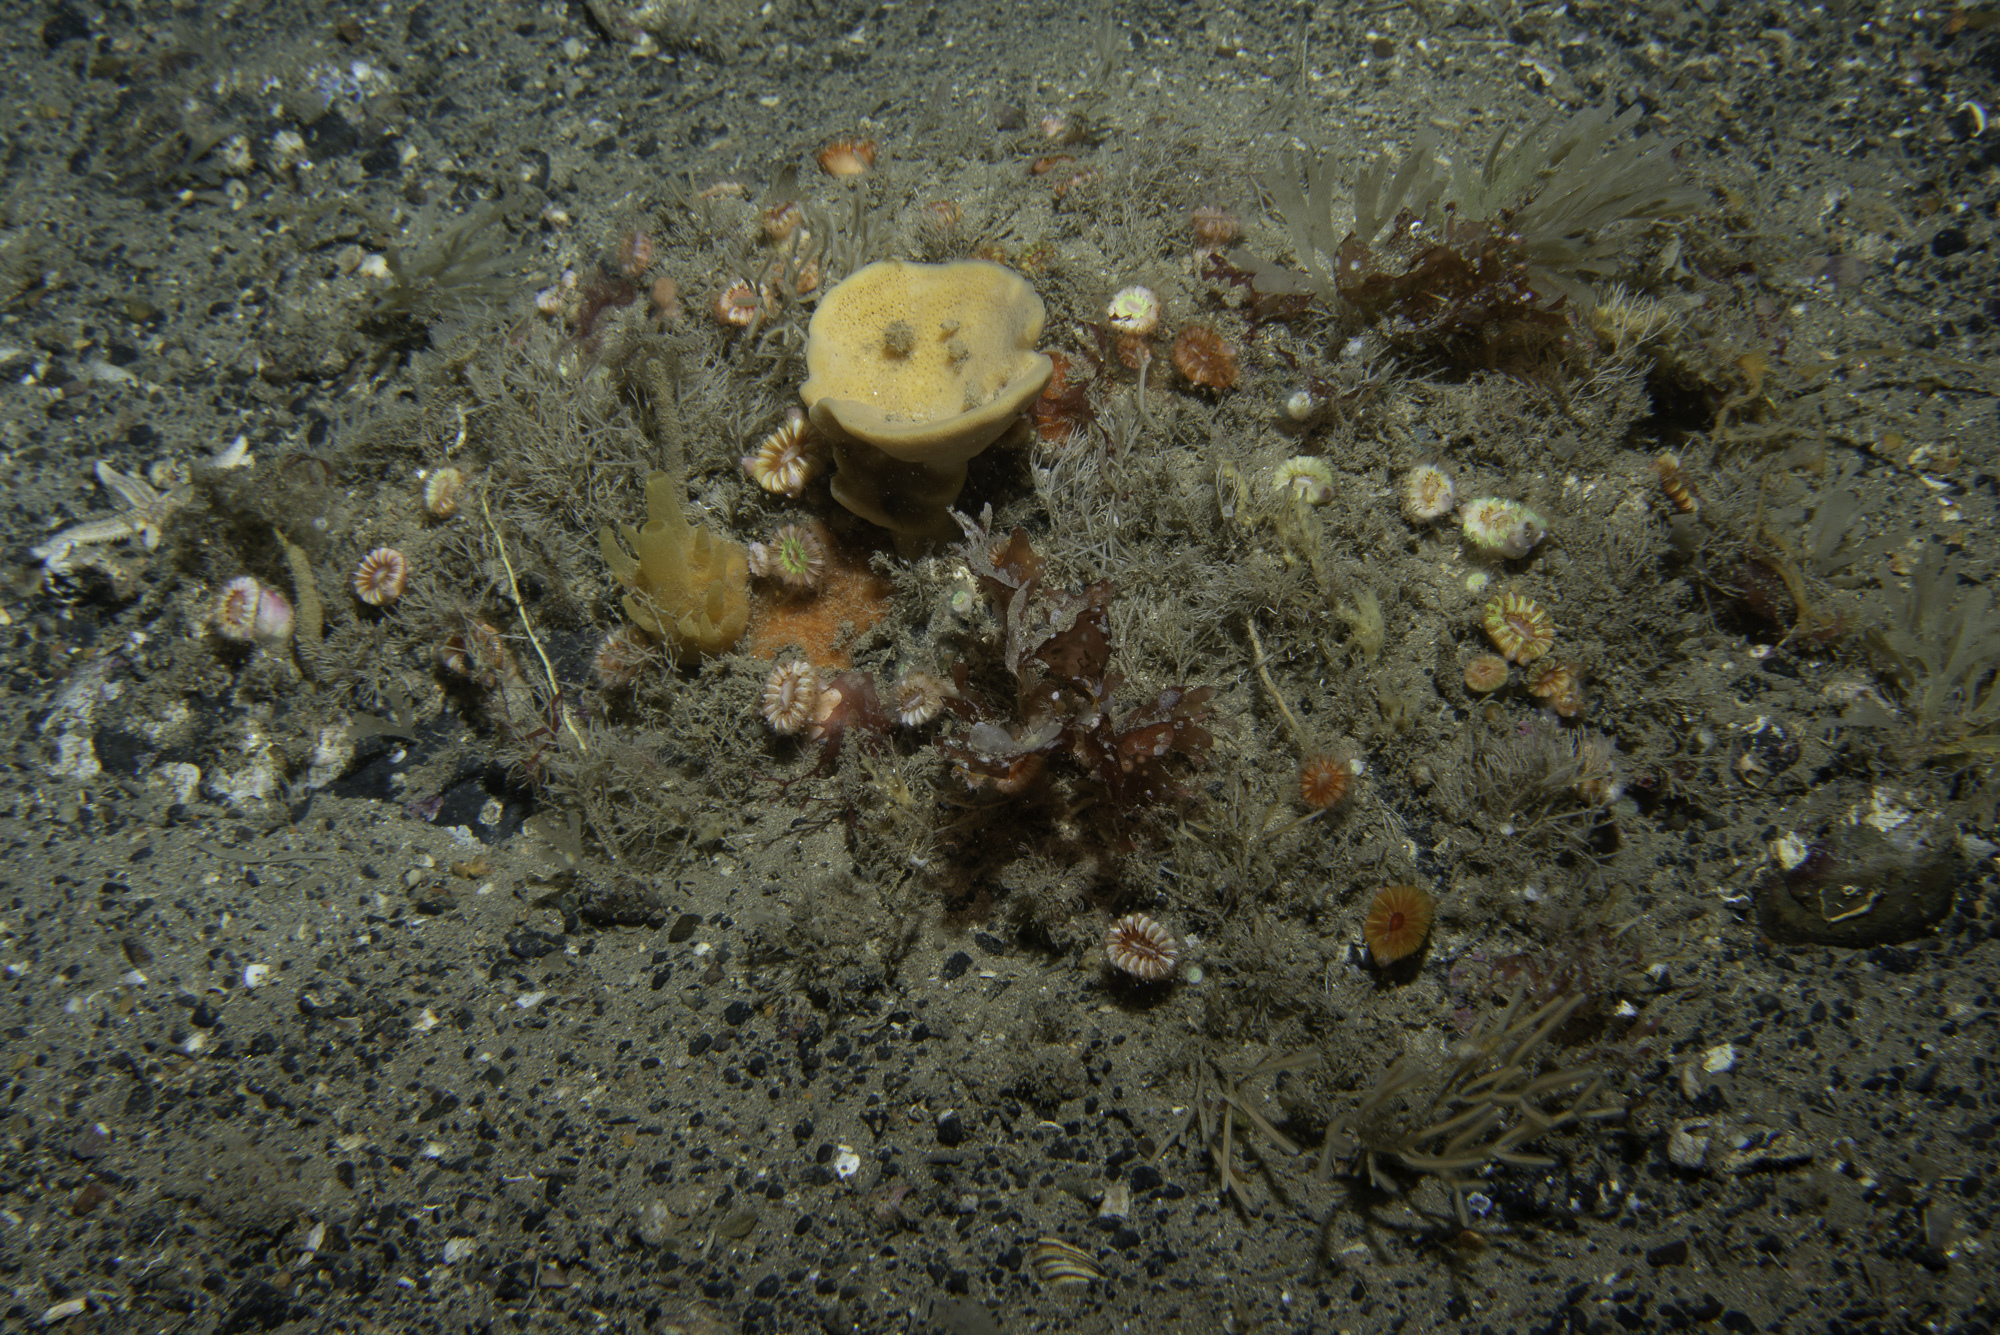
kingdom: Animalia
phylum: Porifera
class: Demospongiae
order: Axinellida
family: Axinellidae
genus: Axinella
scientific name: Axinella infundibuliformis
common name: North atlantic cup sponge
